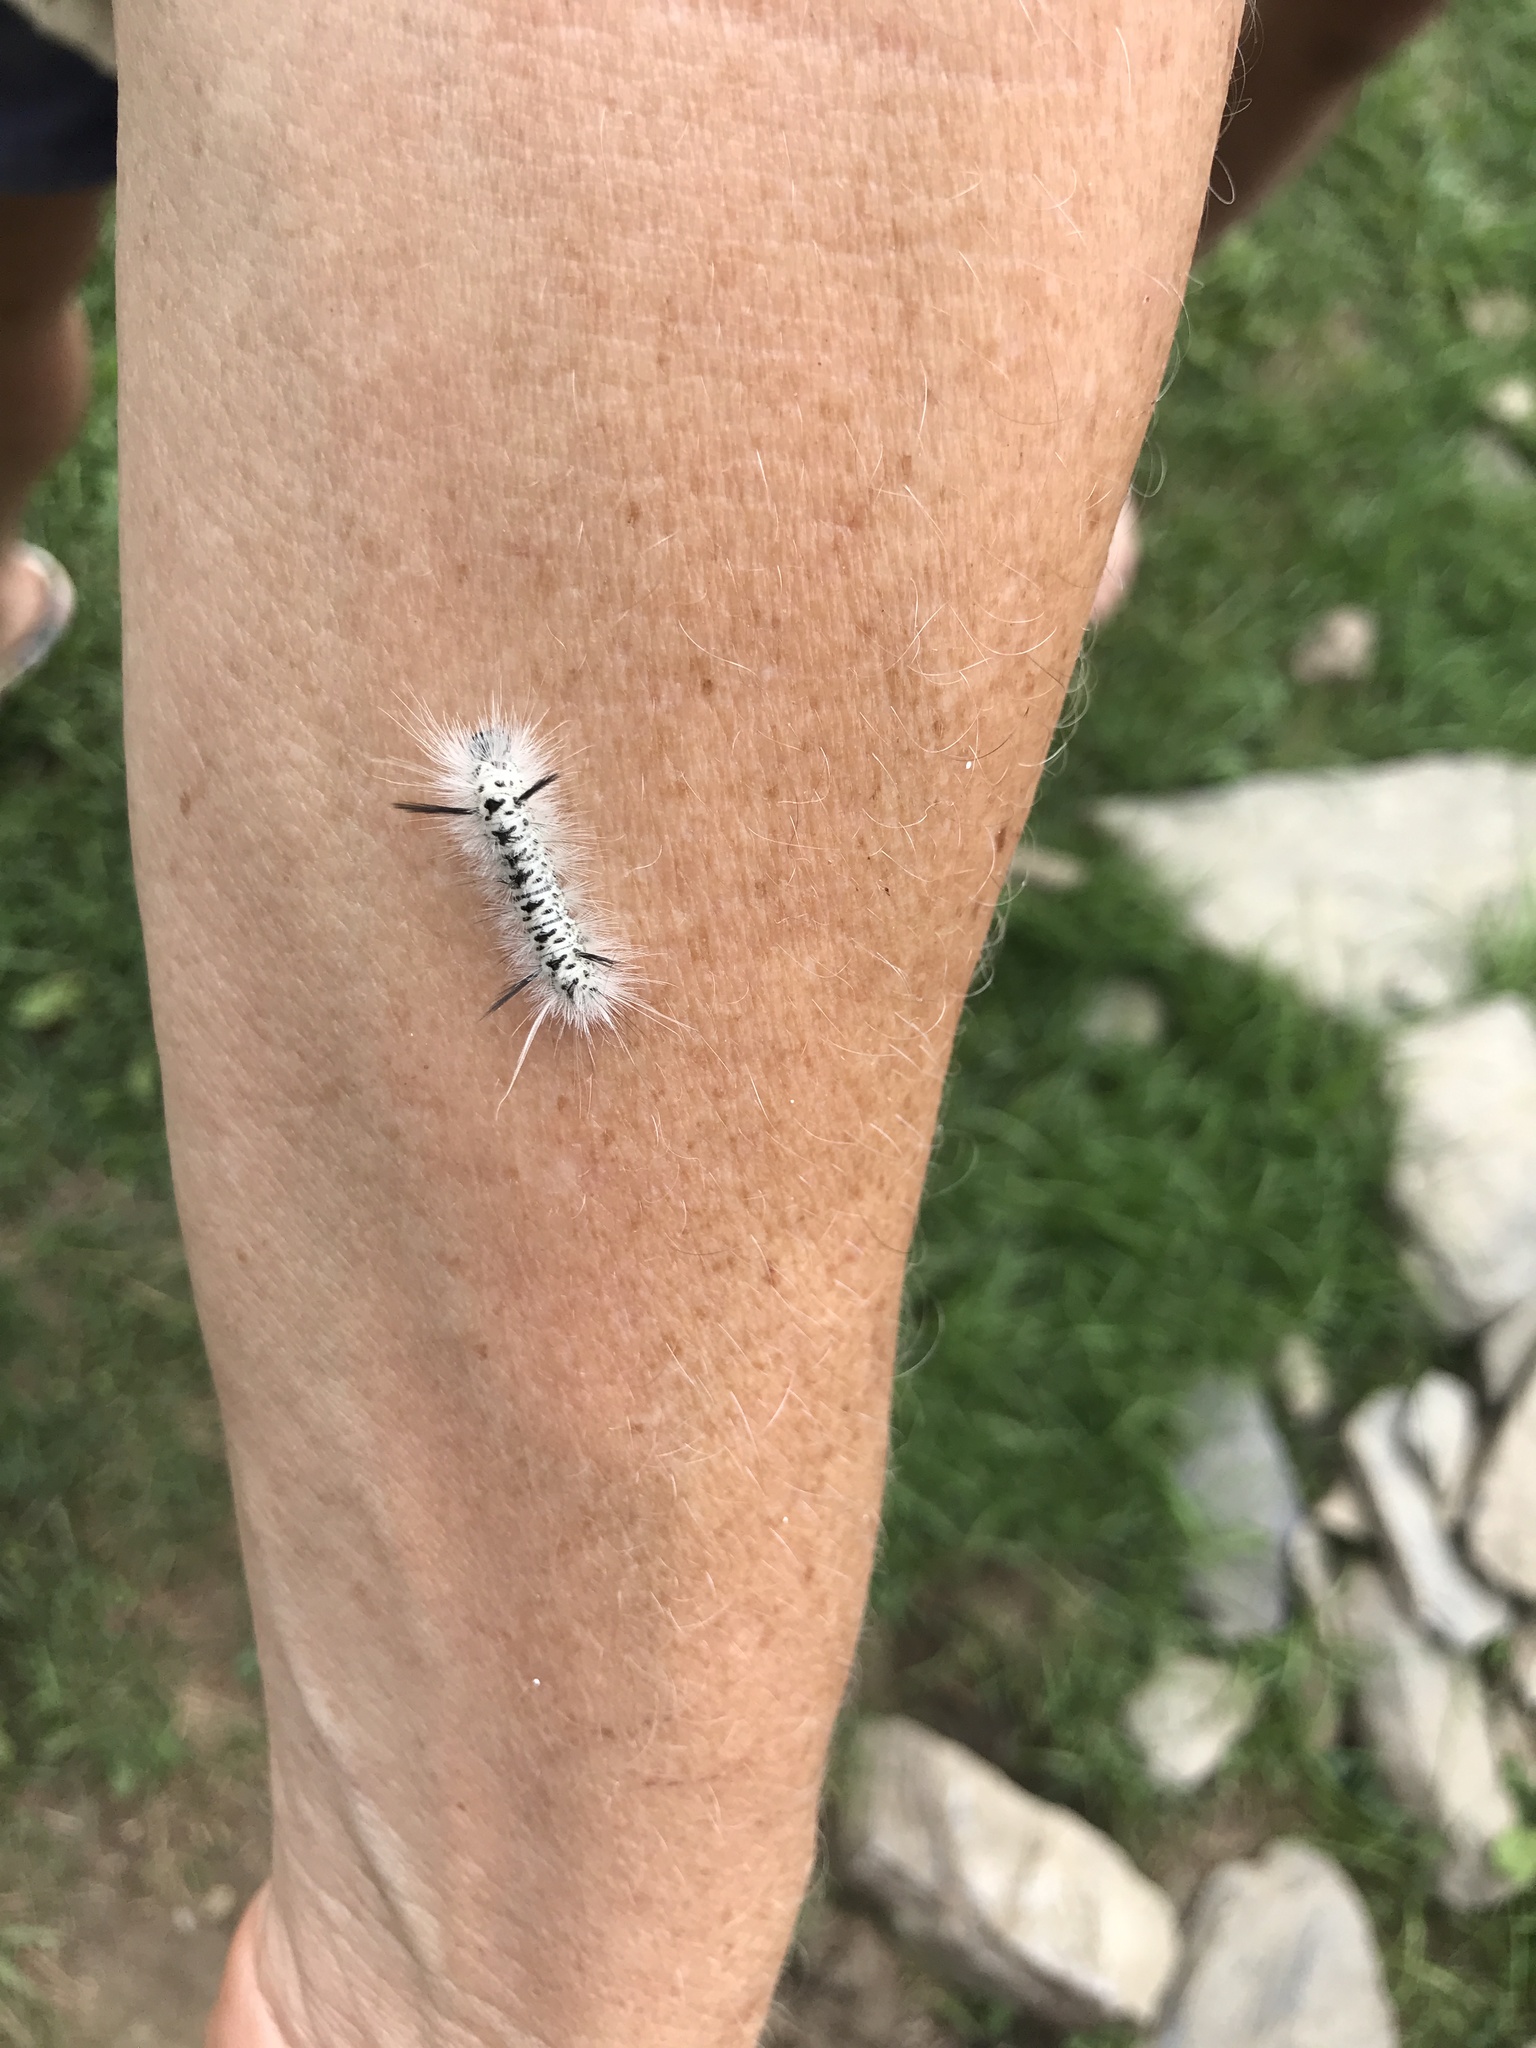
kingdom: Animalia
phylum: Arthropoda
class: Insecta
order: Lepidoptera
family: Erebidae
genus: Lophocampa
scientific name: Lophocampa caryae
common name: Hickory tussock moth
